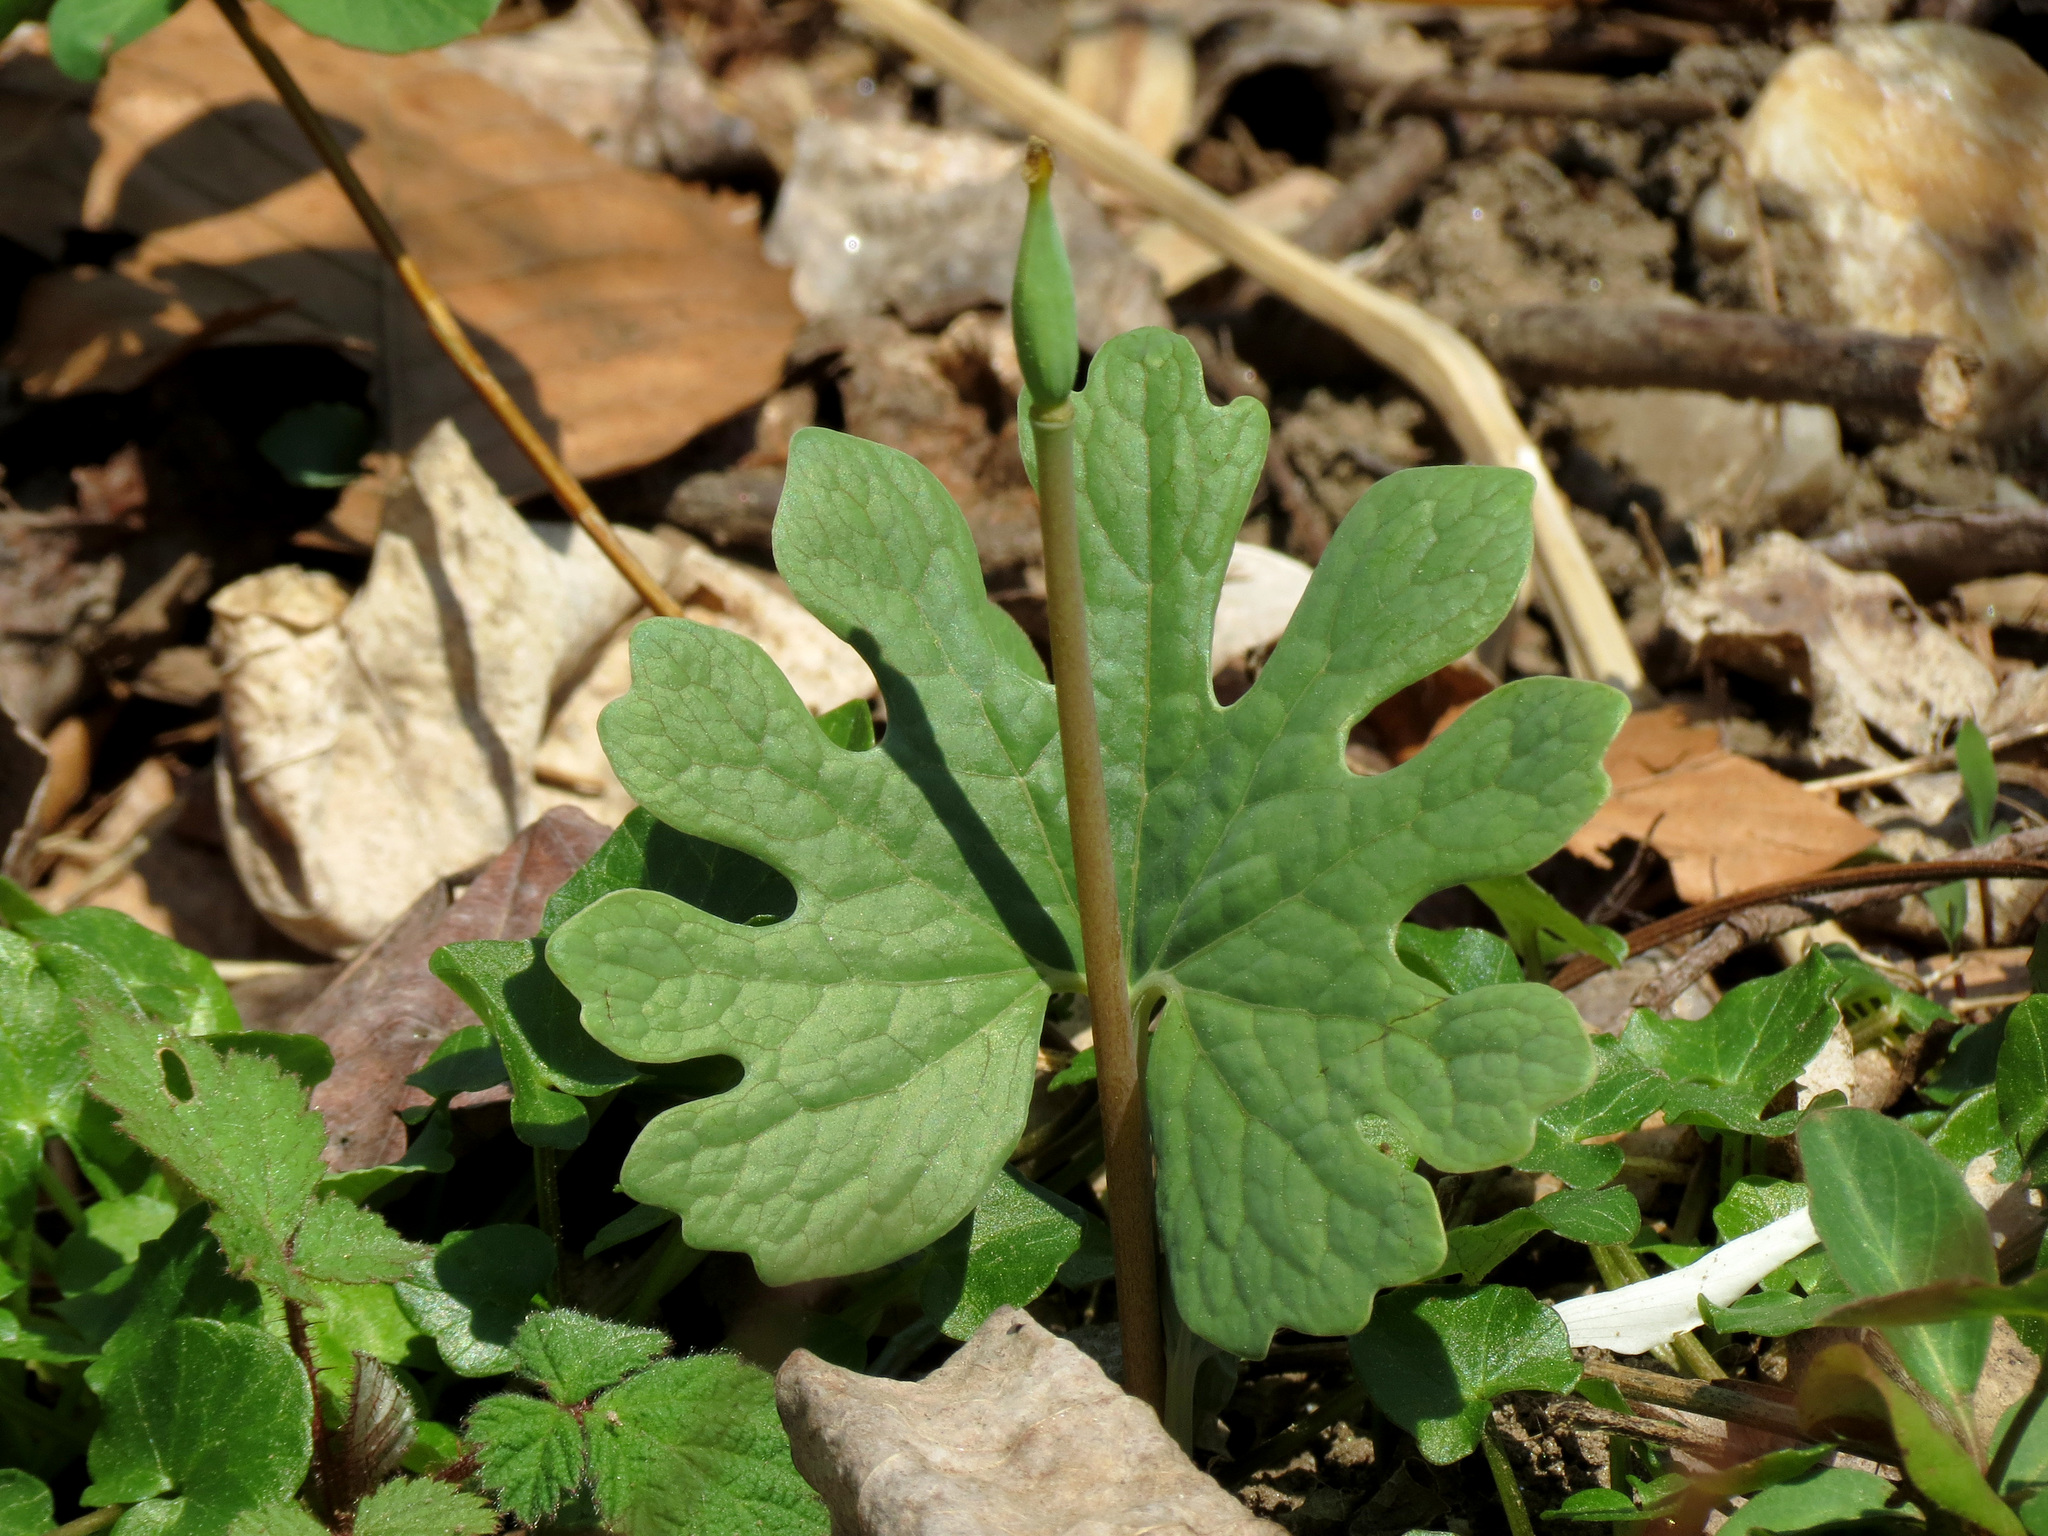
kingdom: Plantae
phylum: Tracheophyta
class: Magnoliopsida
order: Ranunculales
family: Papaveraceae
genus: Sanguinaria
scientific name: Sanguinaria canadensis
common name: Bloodroot
